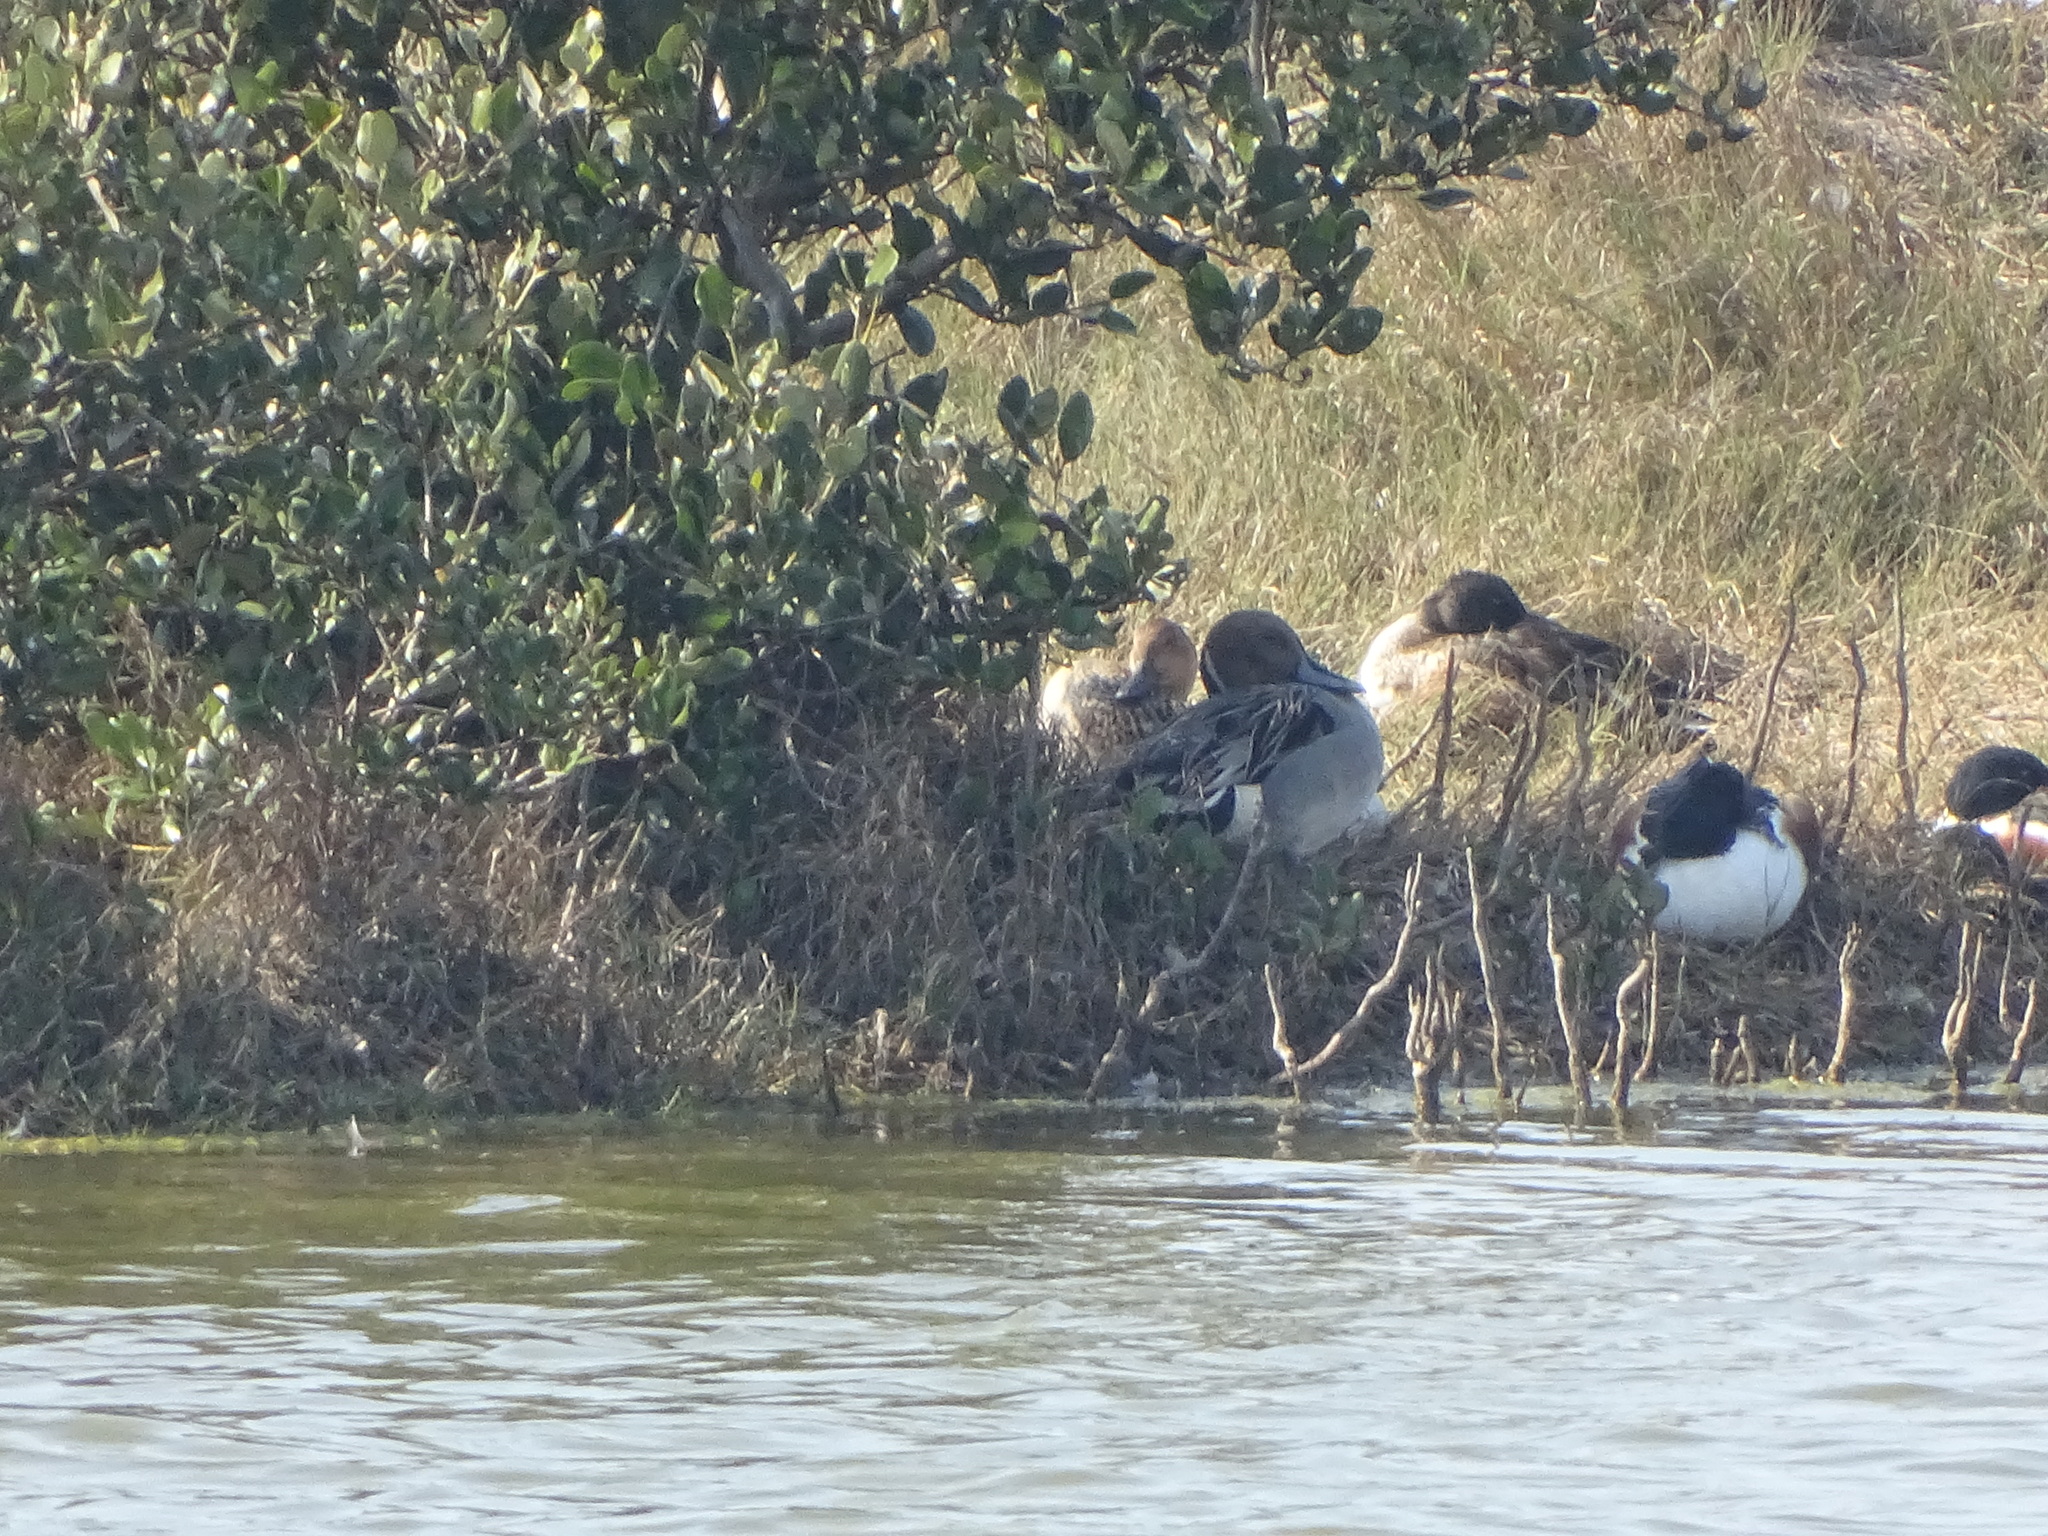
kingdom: Animalia
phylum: Chordata
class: Aves
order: Anseriformes
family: Anatidae
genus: Anas
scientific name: Anas acuta
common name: Northern pintail
